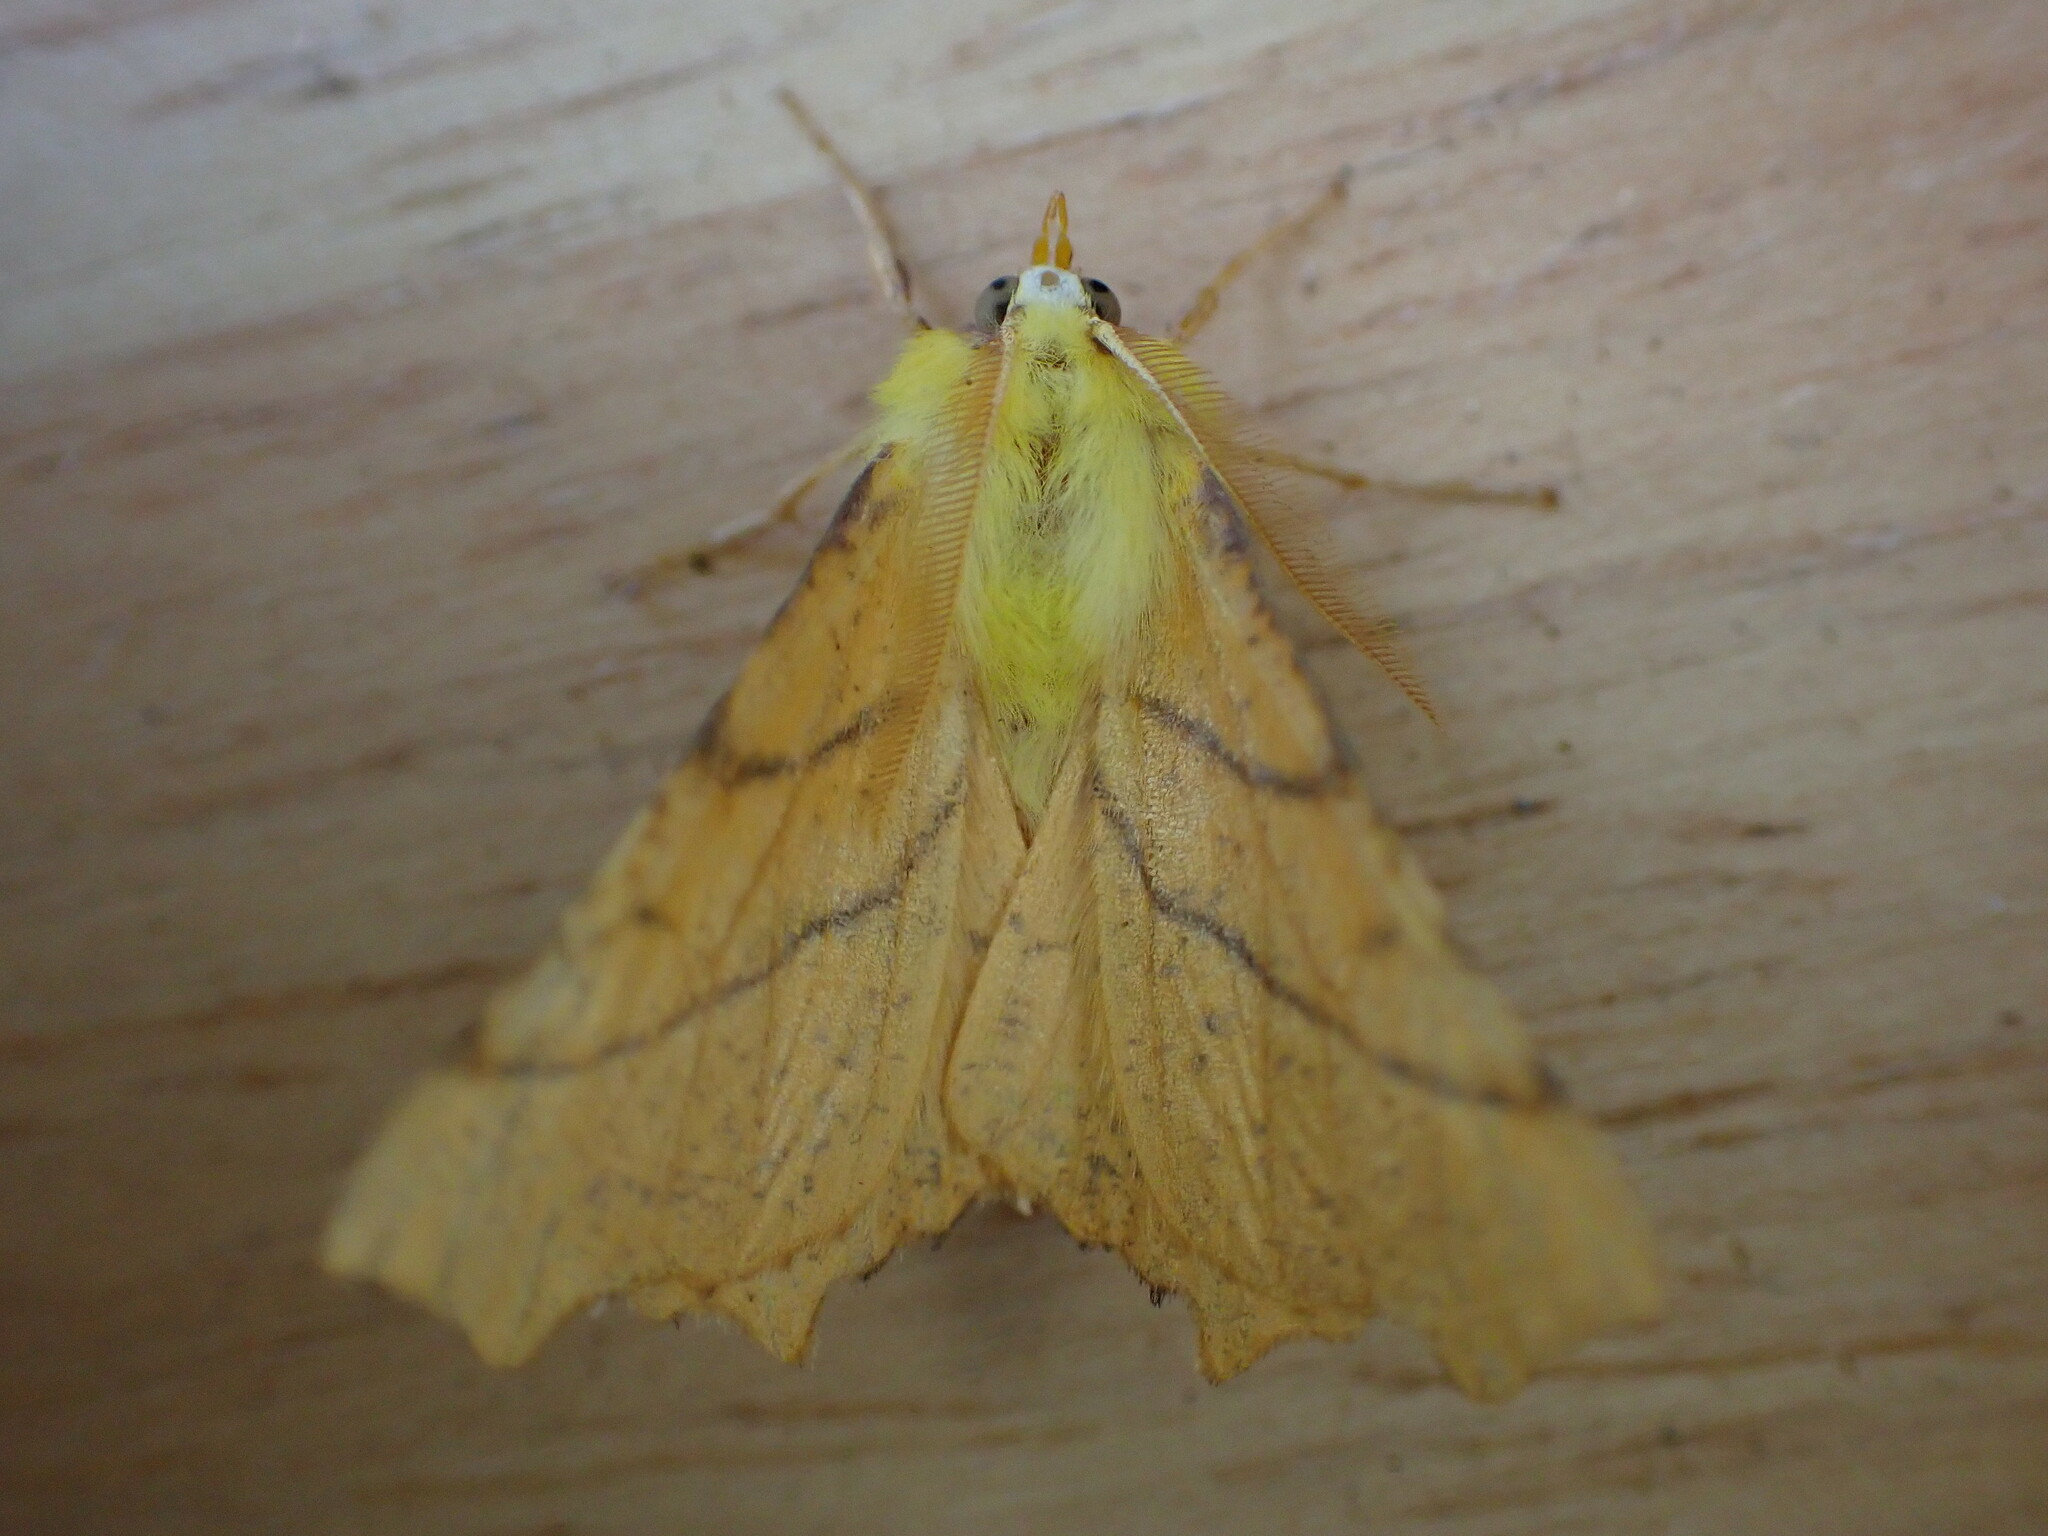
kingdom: Animalia
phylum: Arthropoda
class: Insecta
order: Lepidoptera
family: Geometridae
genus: Ennomos
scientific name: Ennomos alniaria
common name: Canary-shouldered thorn
